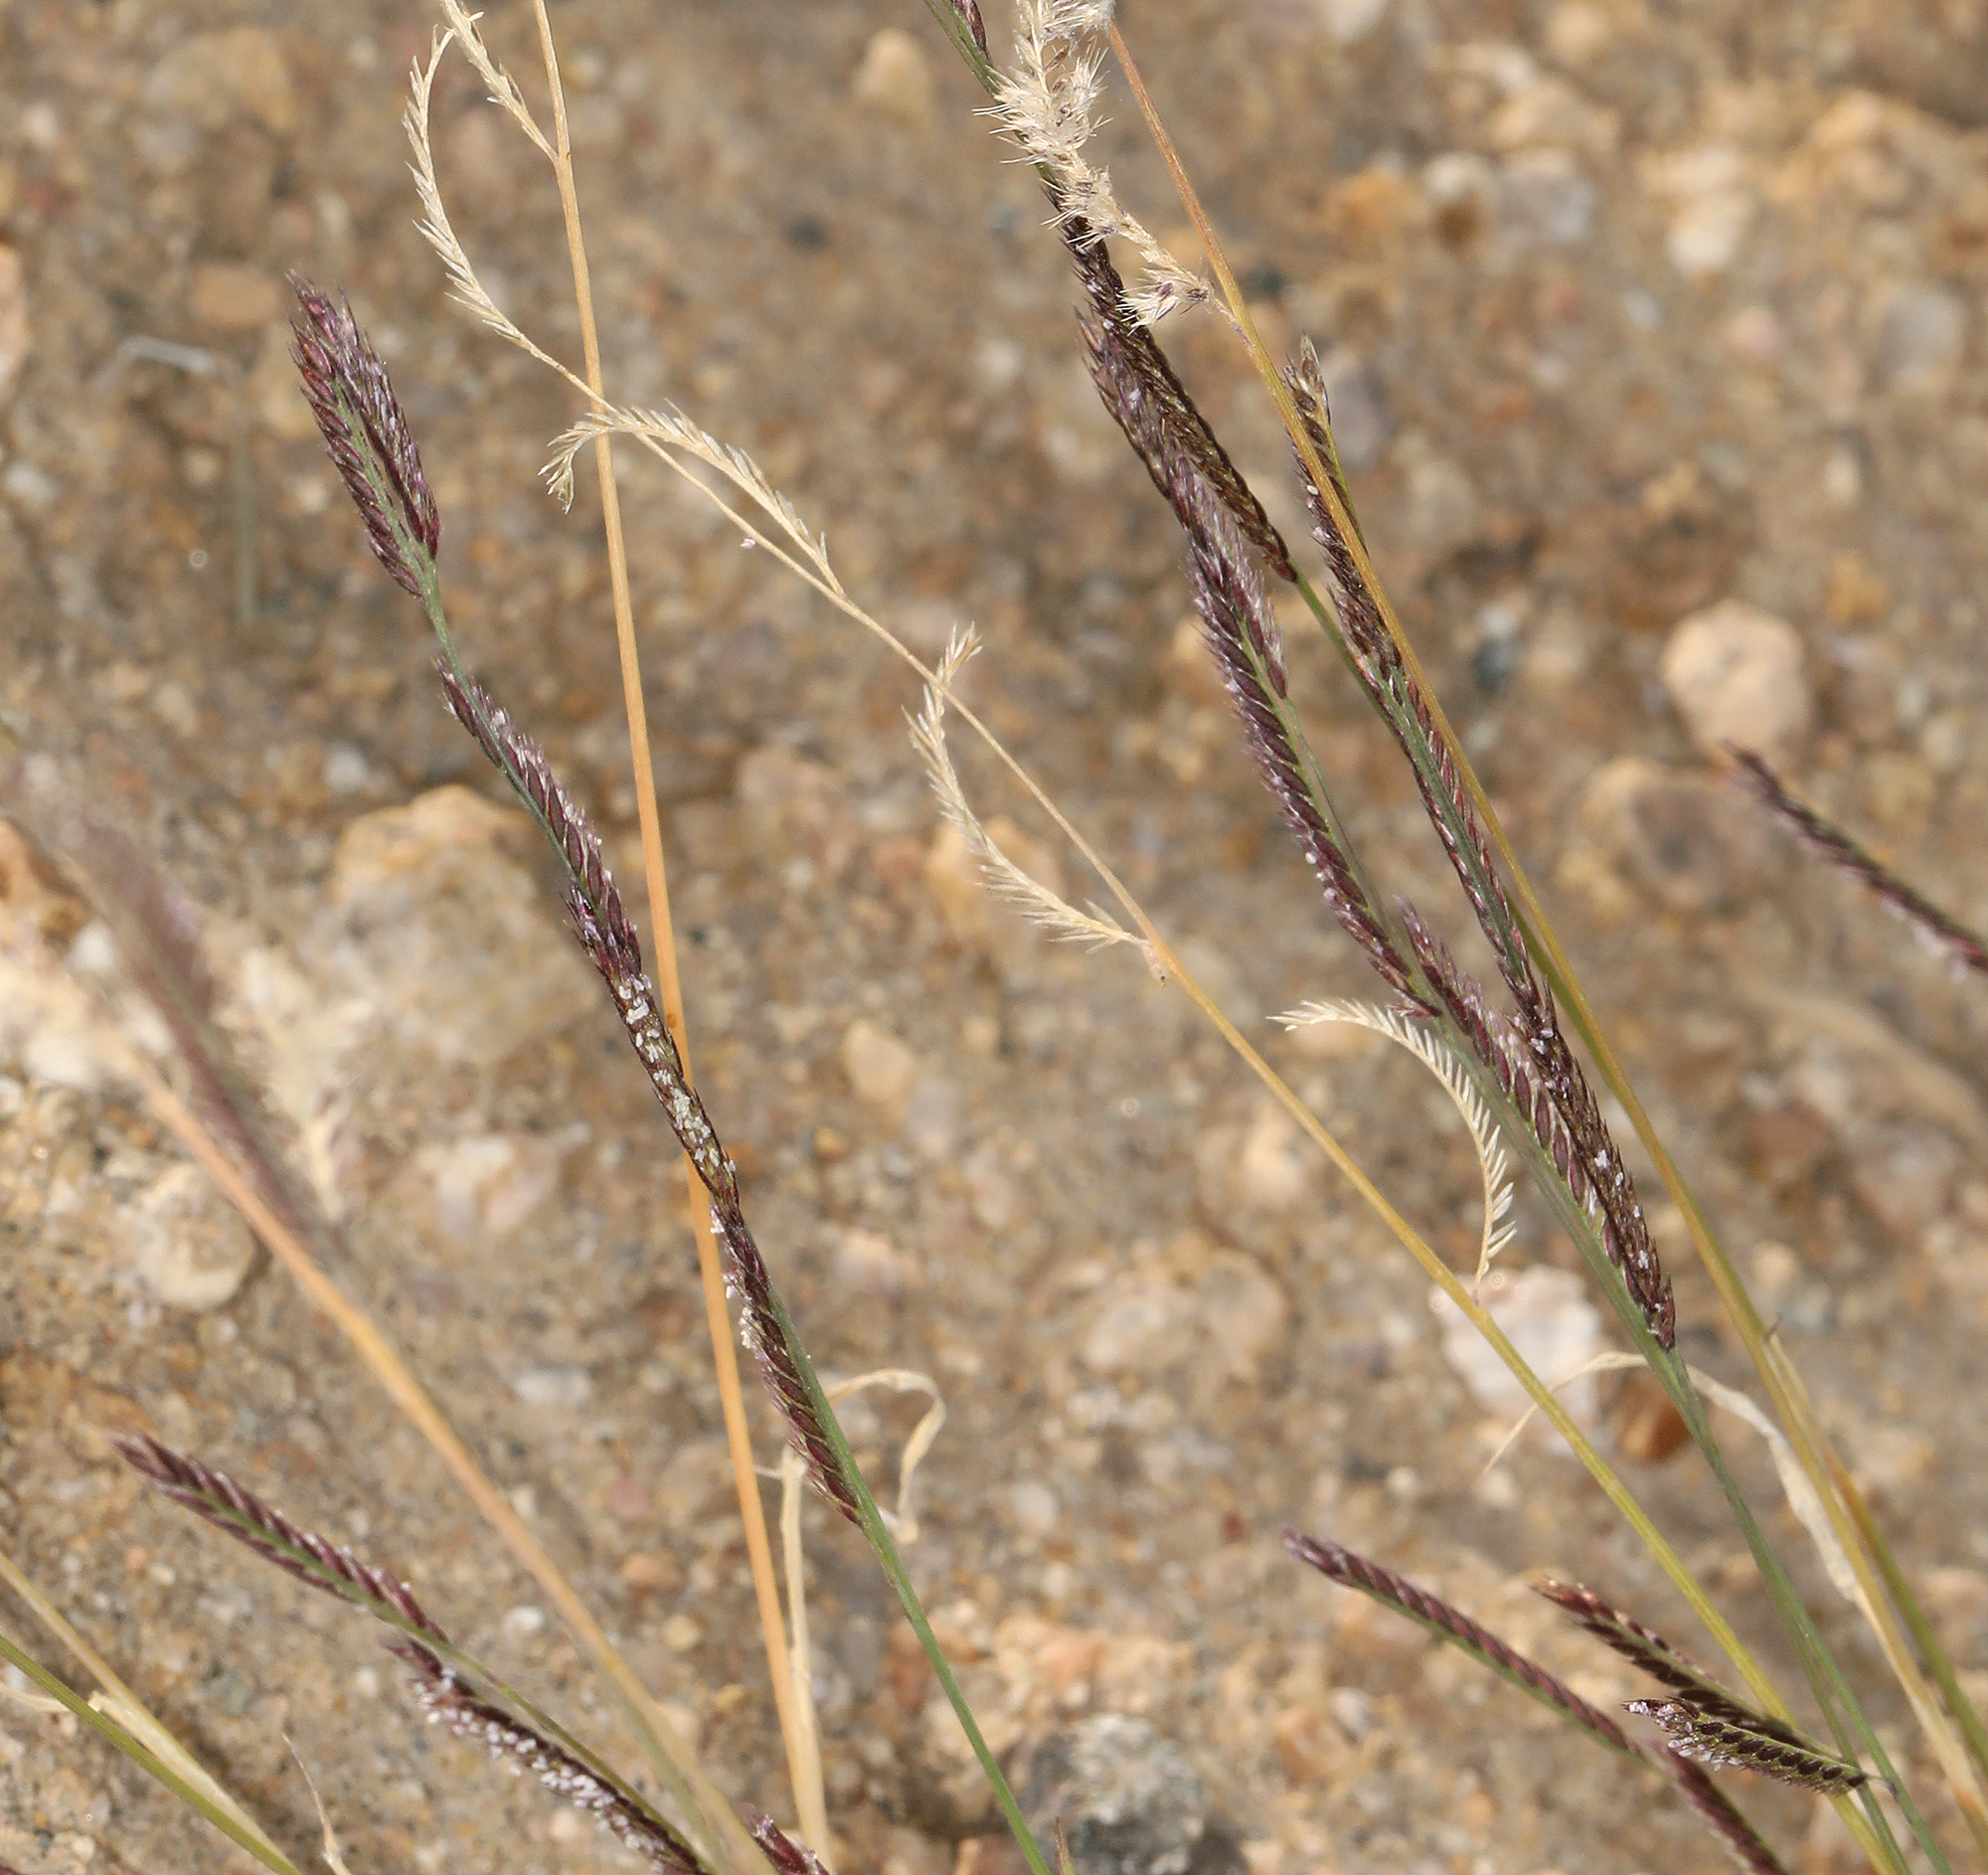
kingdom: Plantae
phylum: Tracheophyta
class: Liliopsida
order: Poales
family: Poaceae
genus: Bouteloua
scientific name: Bouteloua barbata
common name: Six-weeks grama
